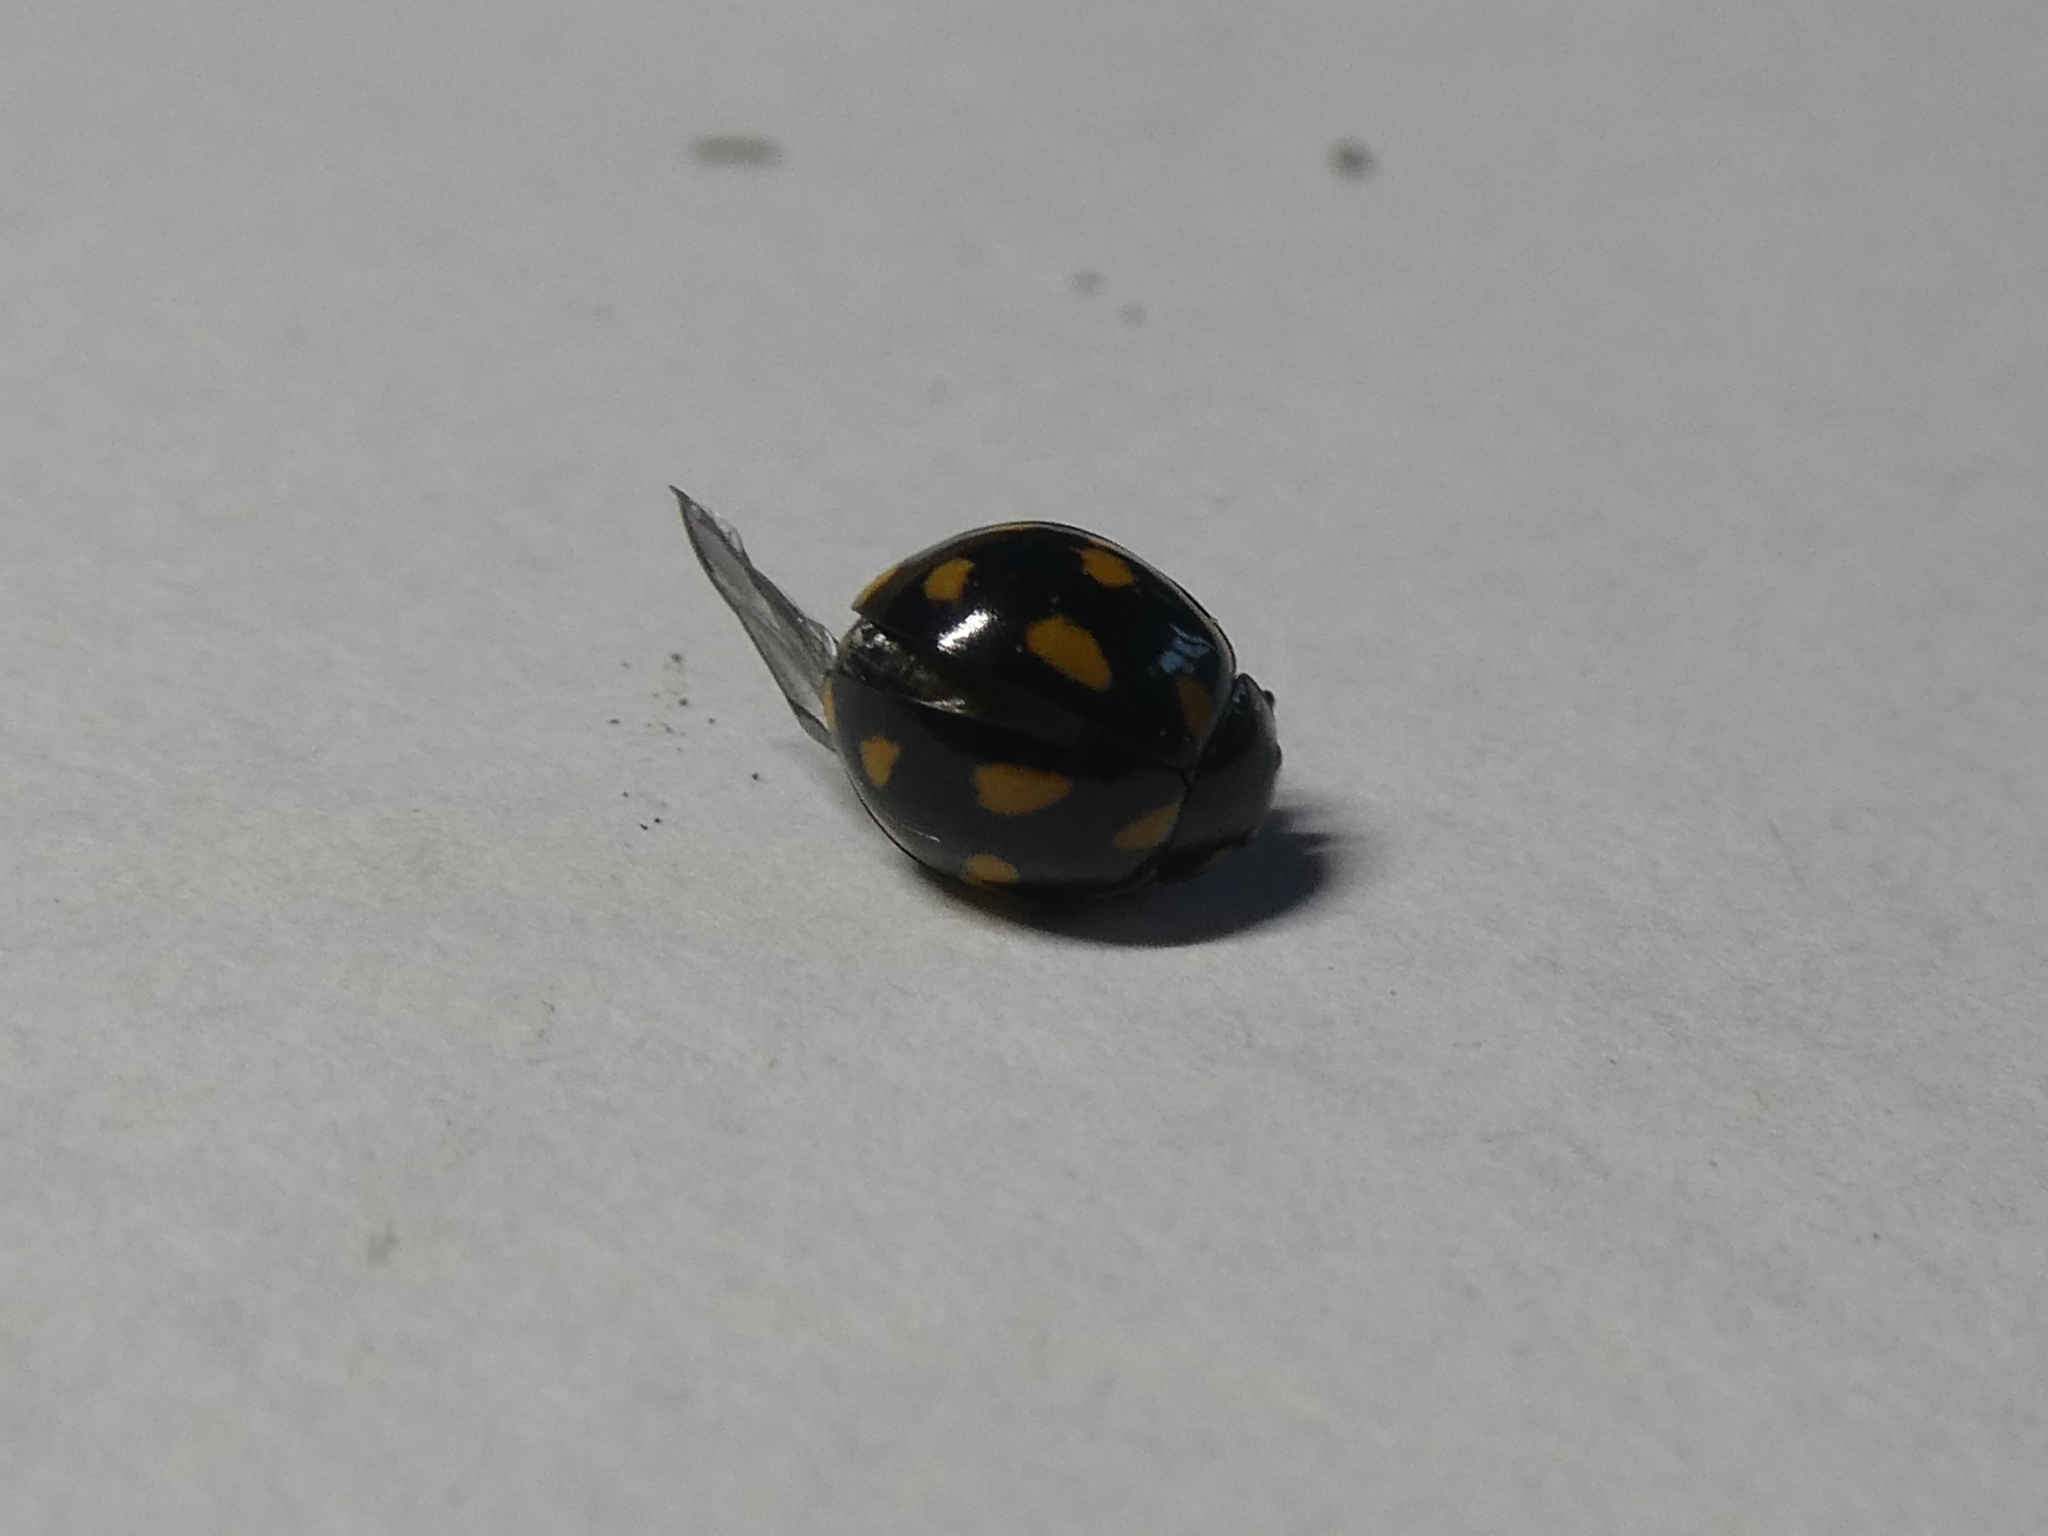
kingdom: Animalia
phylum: Arthropoda
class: Insecta
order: Coleoptera
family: Coccinellidae
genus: Coccinella
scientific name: Coccinella leonina
